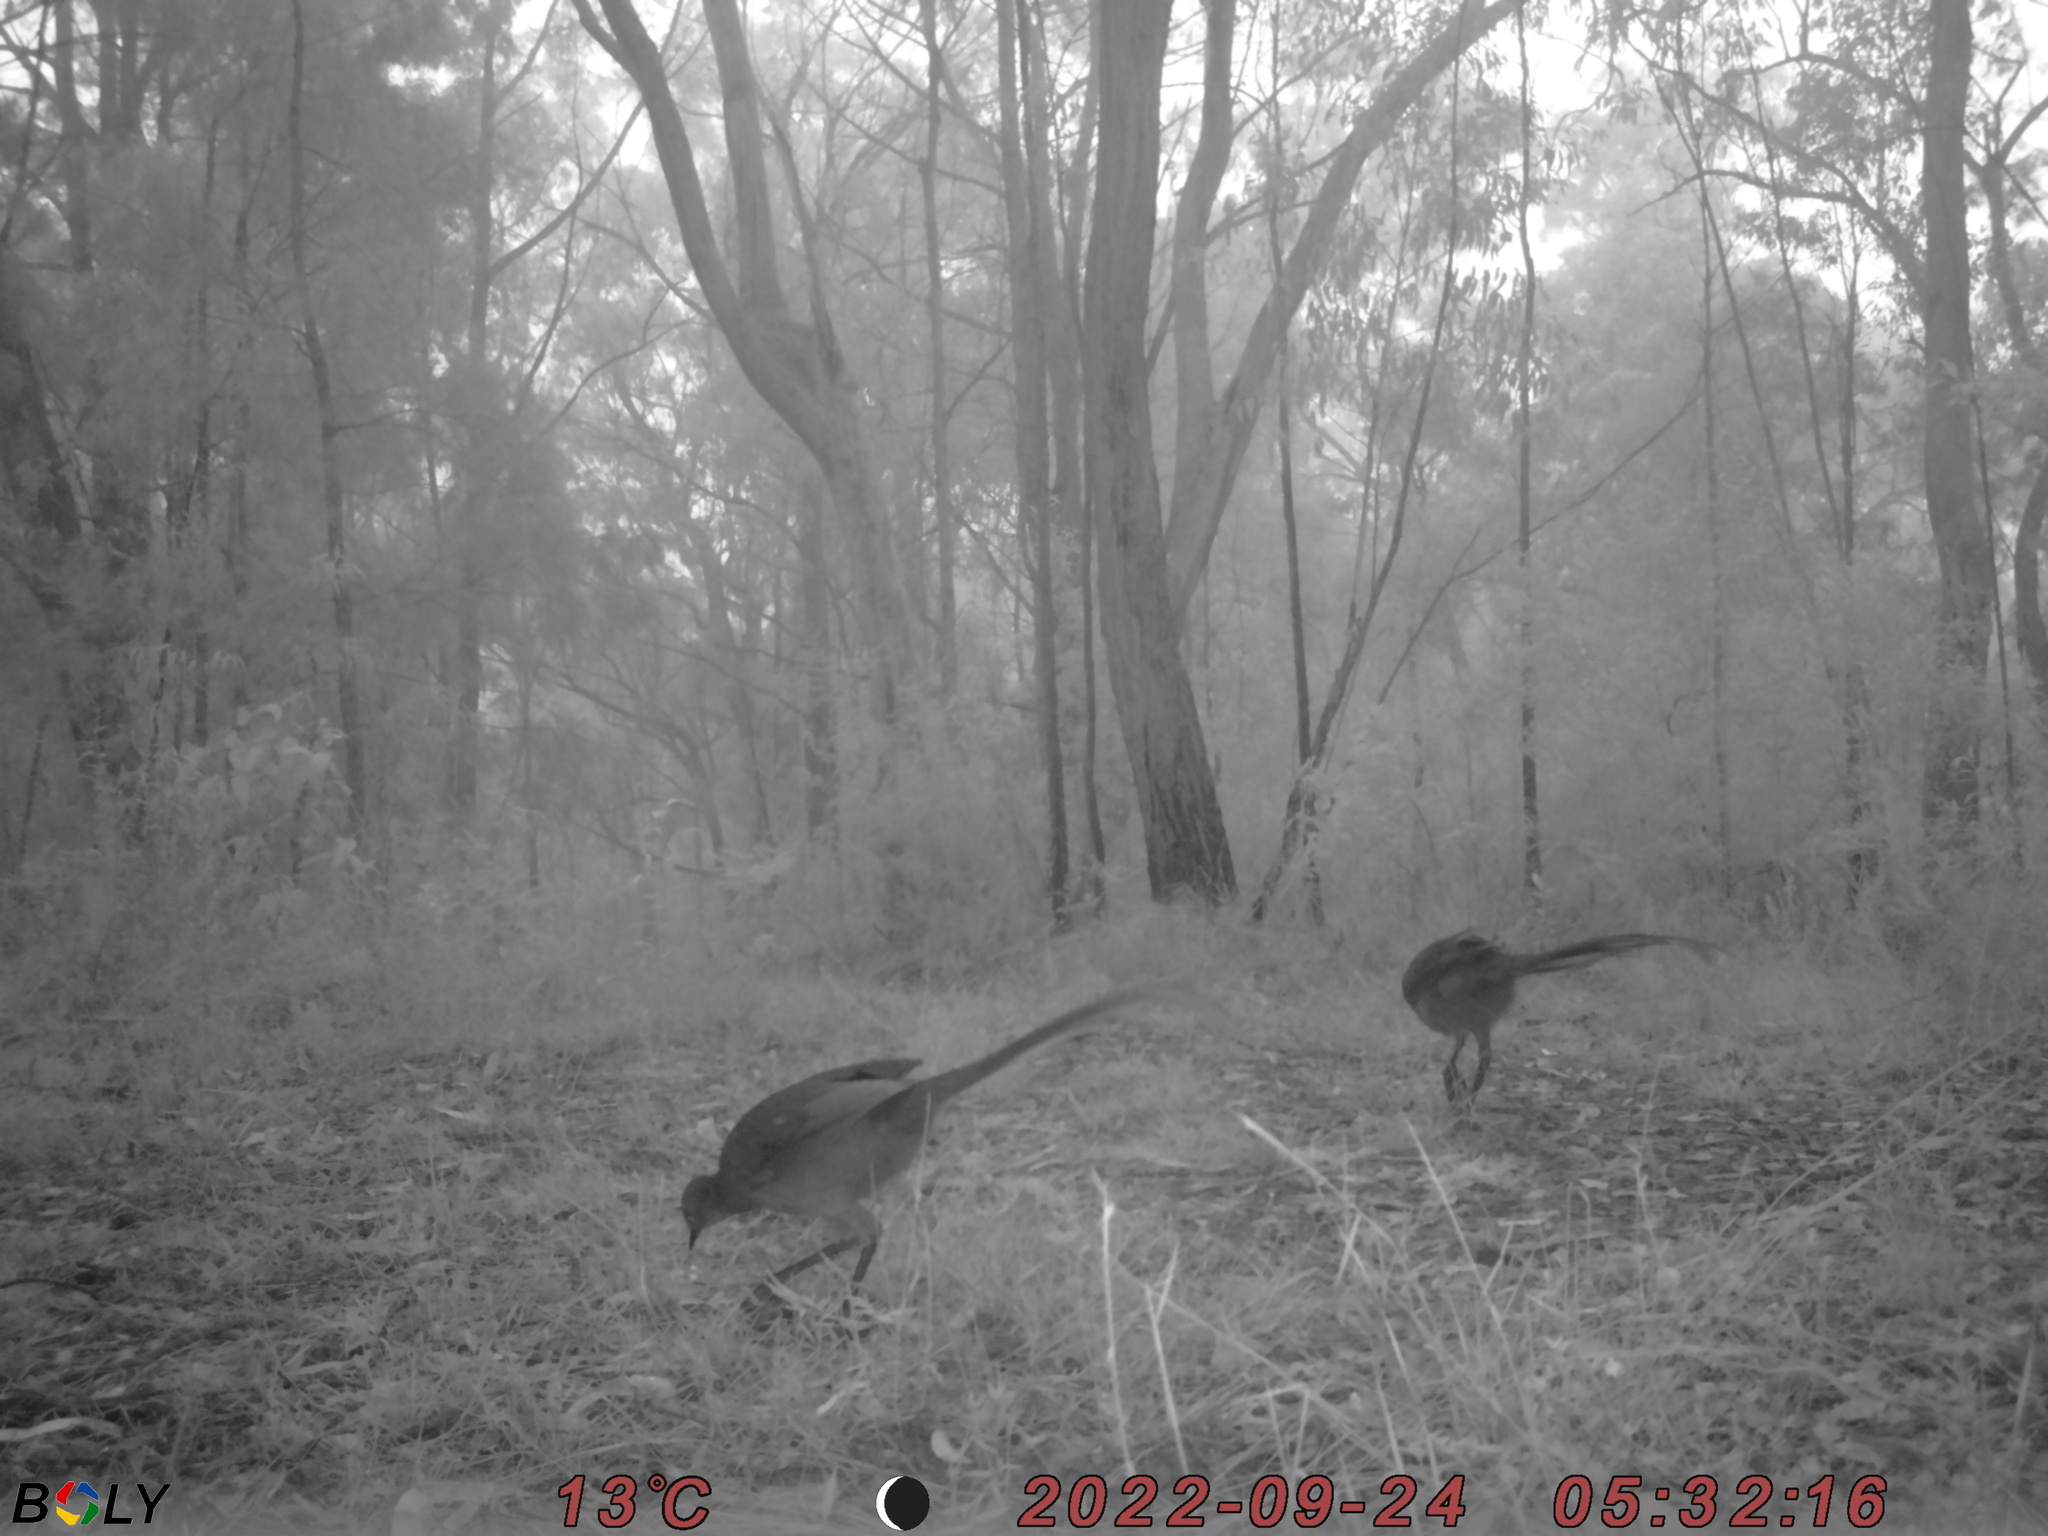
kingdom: Animalia
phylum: Chordata
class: Aves
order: Passeriformes
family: Menuridae
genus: Menura
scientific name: Menura novaehollandiae
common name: Superb lyrebird
